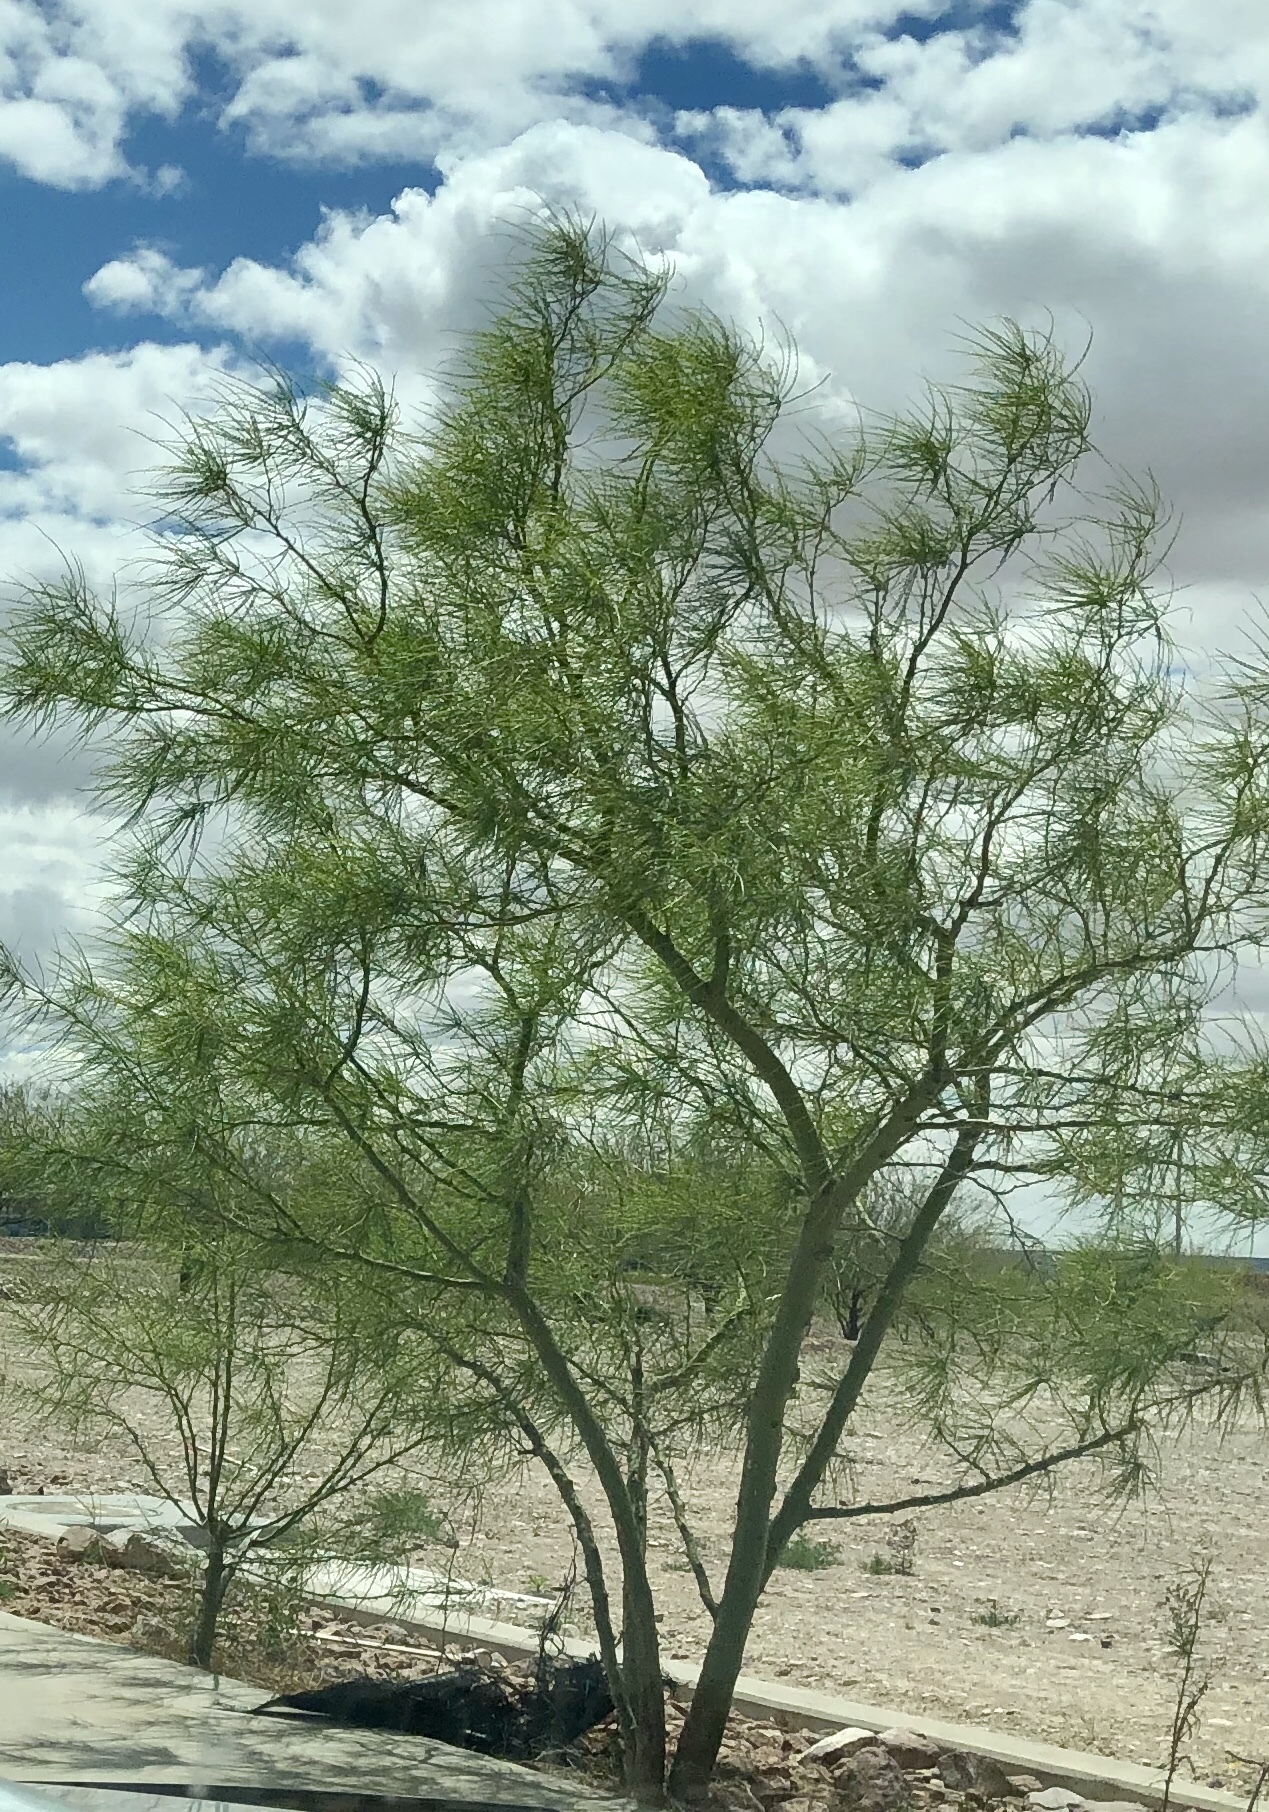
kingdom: Plantae
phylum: Tracheophyta
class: Magnoliopsida
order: Fabales
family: Fabaceae
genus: Parkinsonia
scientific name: Parkinsonia aculeata
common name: Jerusalem thorn
